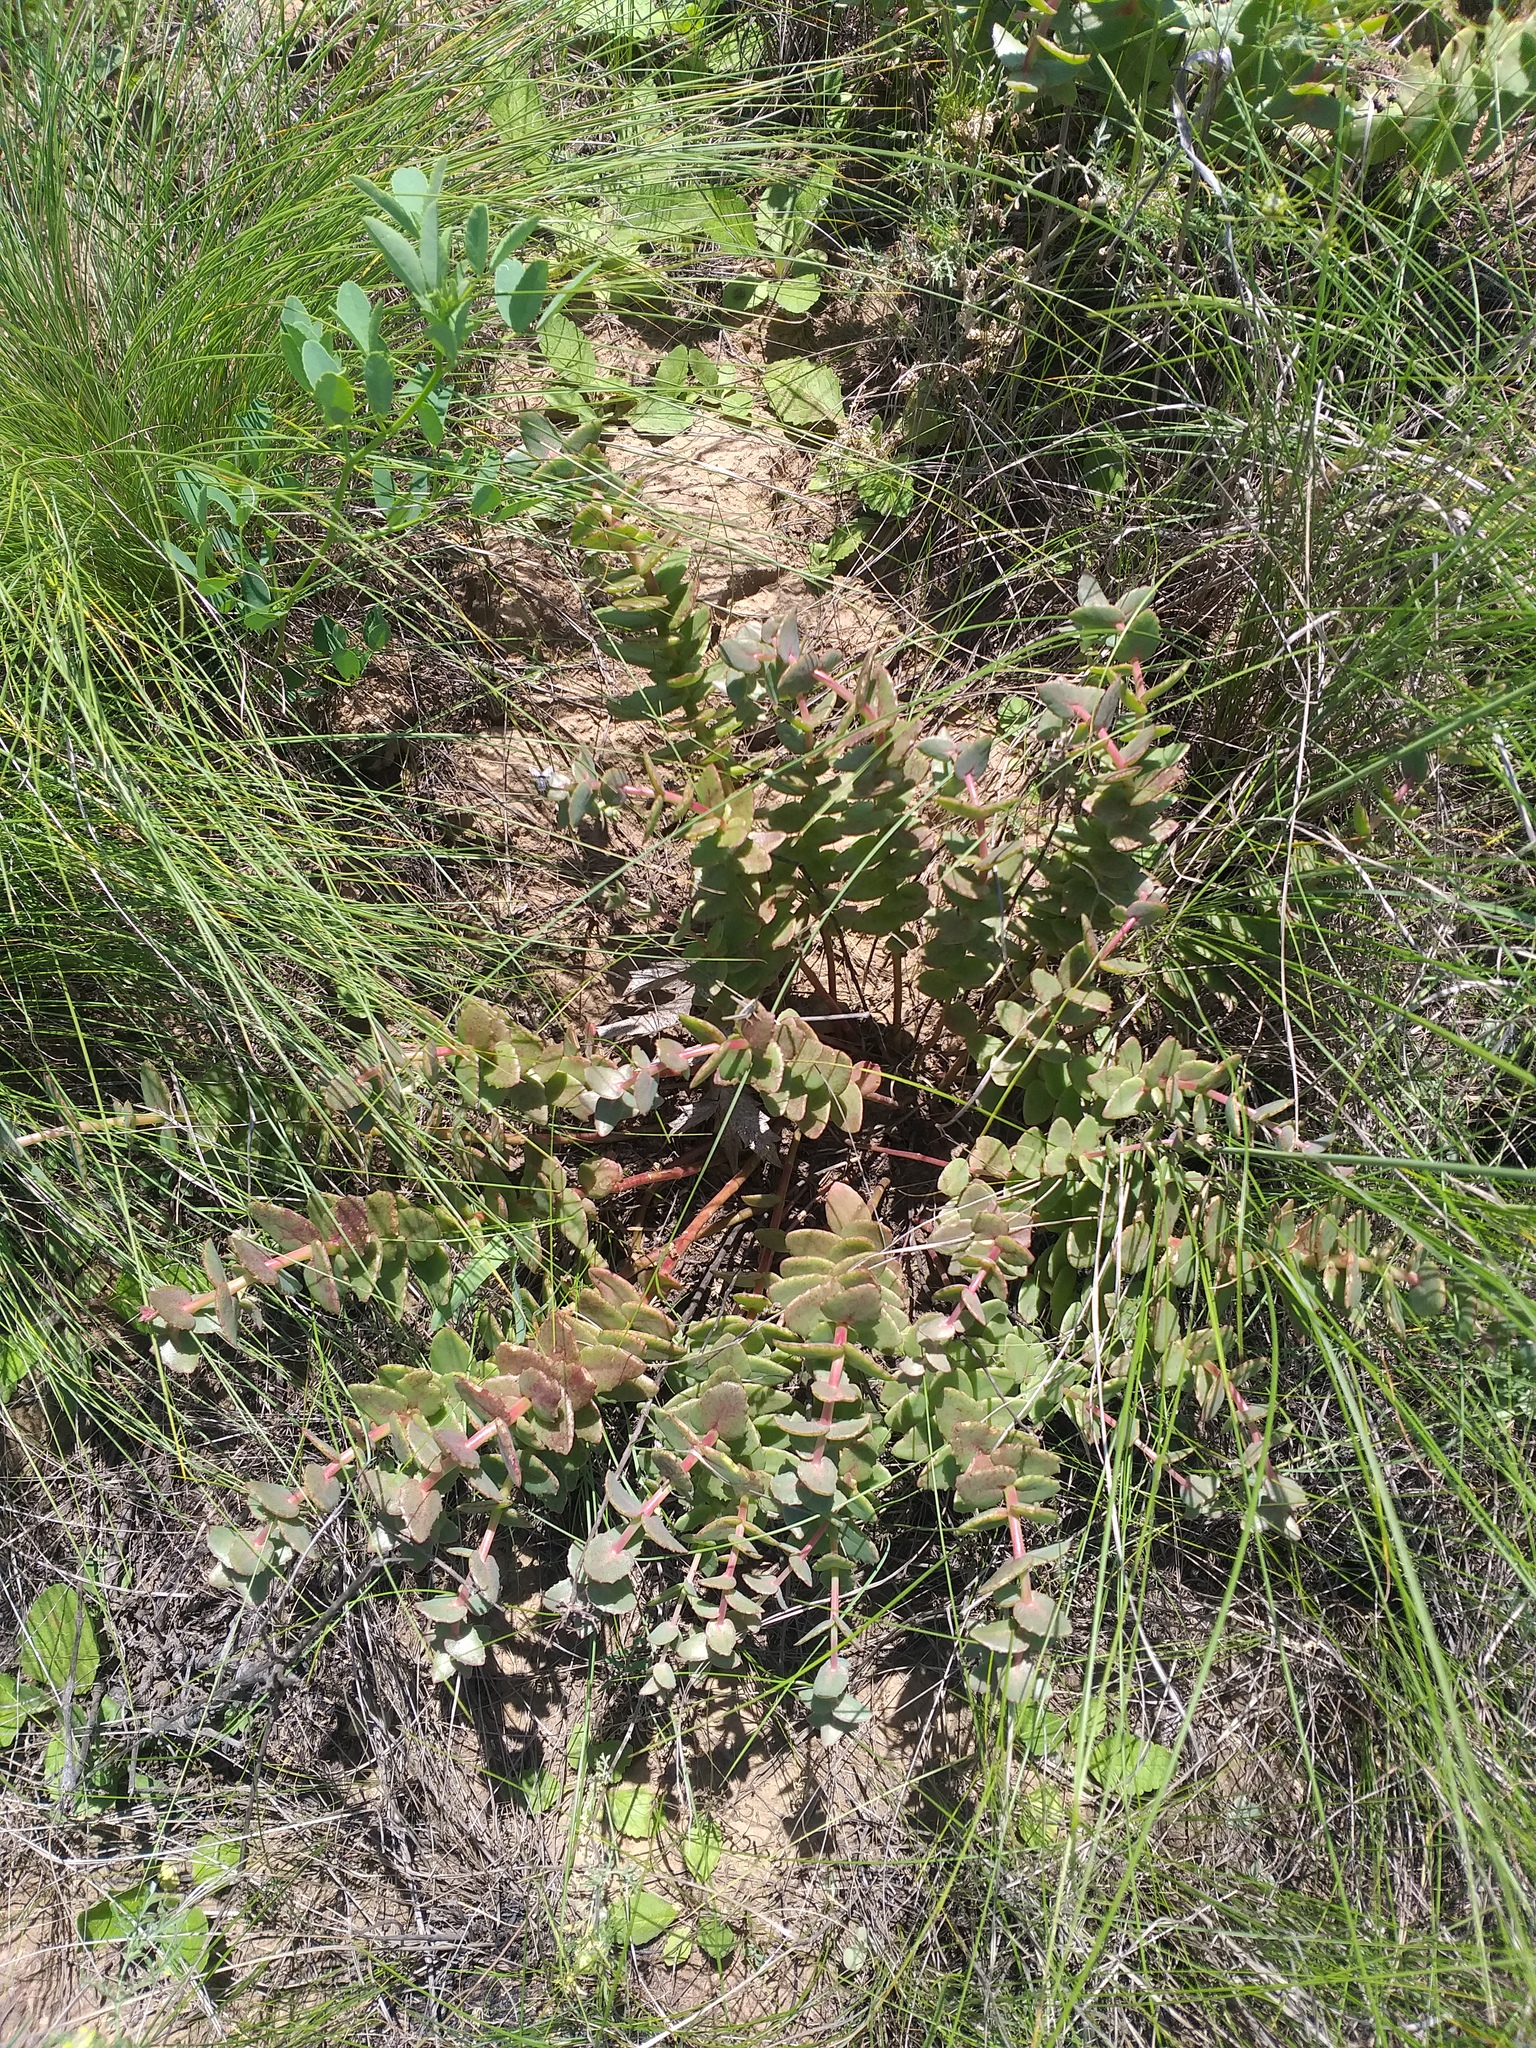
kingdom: Plantae
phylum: Tracheophyta
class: Magnoliopsida
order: Saxifragales
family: Crassulaceae
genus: Hylotelephium
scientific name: Hylotelephium maximum
